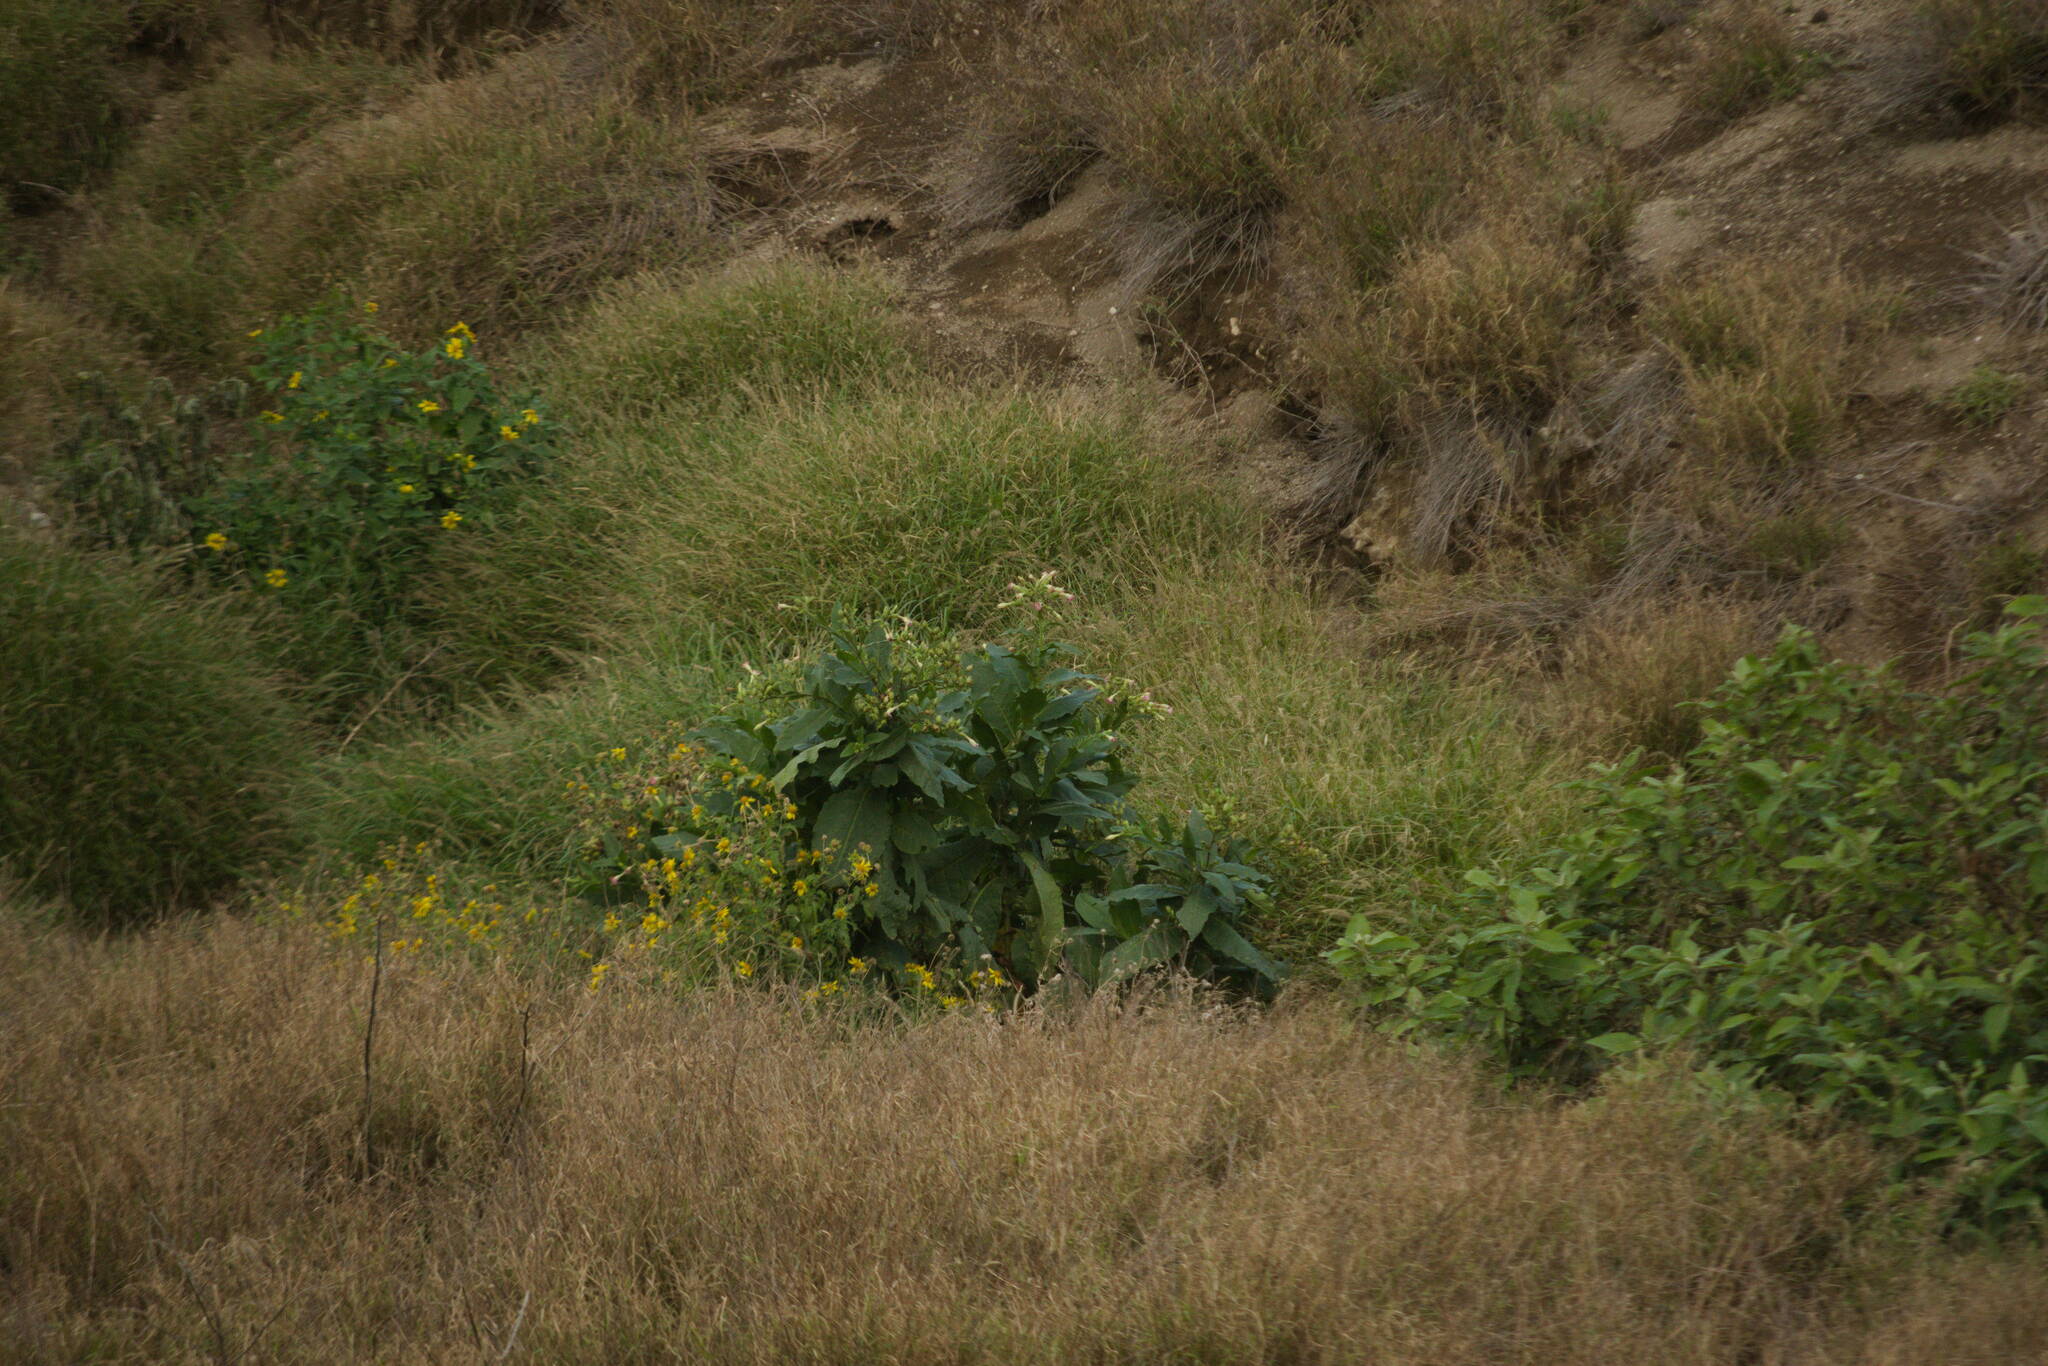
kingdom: Plantae
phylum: Tracheophyta
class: Magnoliopsida
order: Solanales
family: Solanaceae
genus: Nicotiana
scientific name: Nicotiana tabacum
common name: Tobacco
